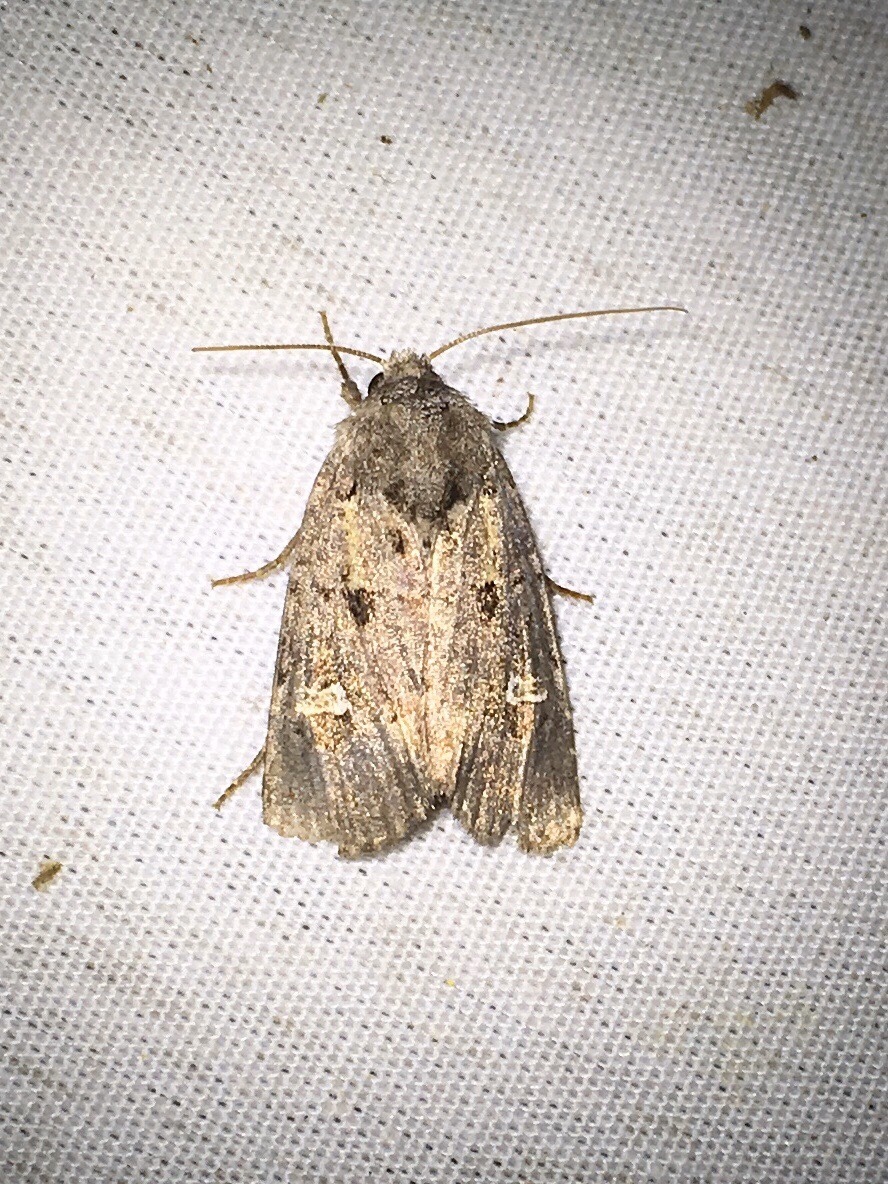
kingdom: Animalia
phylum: Arthropoda
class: Insecta
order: Lepidoptera
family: Noctuidae
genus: Lacinipolia
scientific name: Lacinipolia renigera
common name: Kidney-spotted minor
